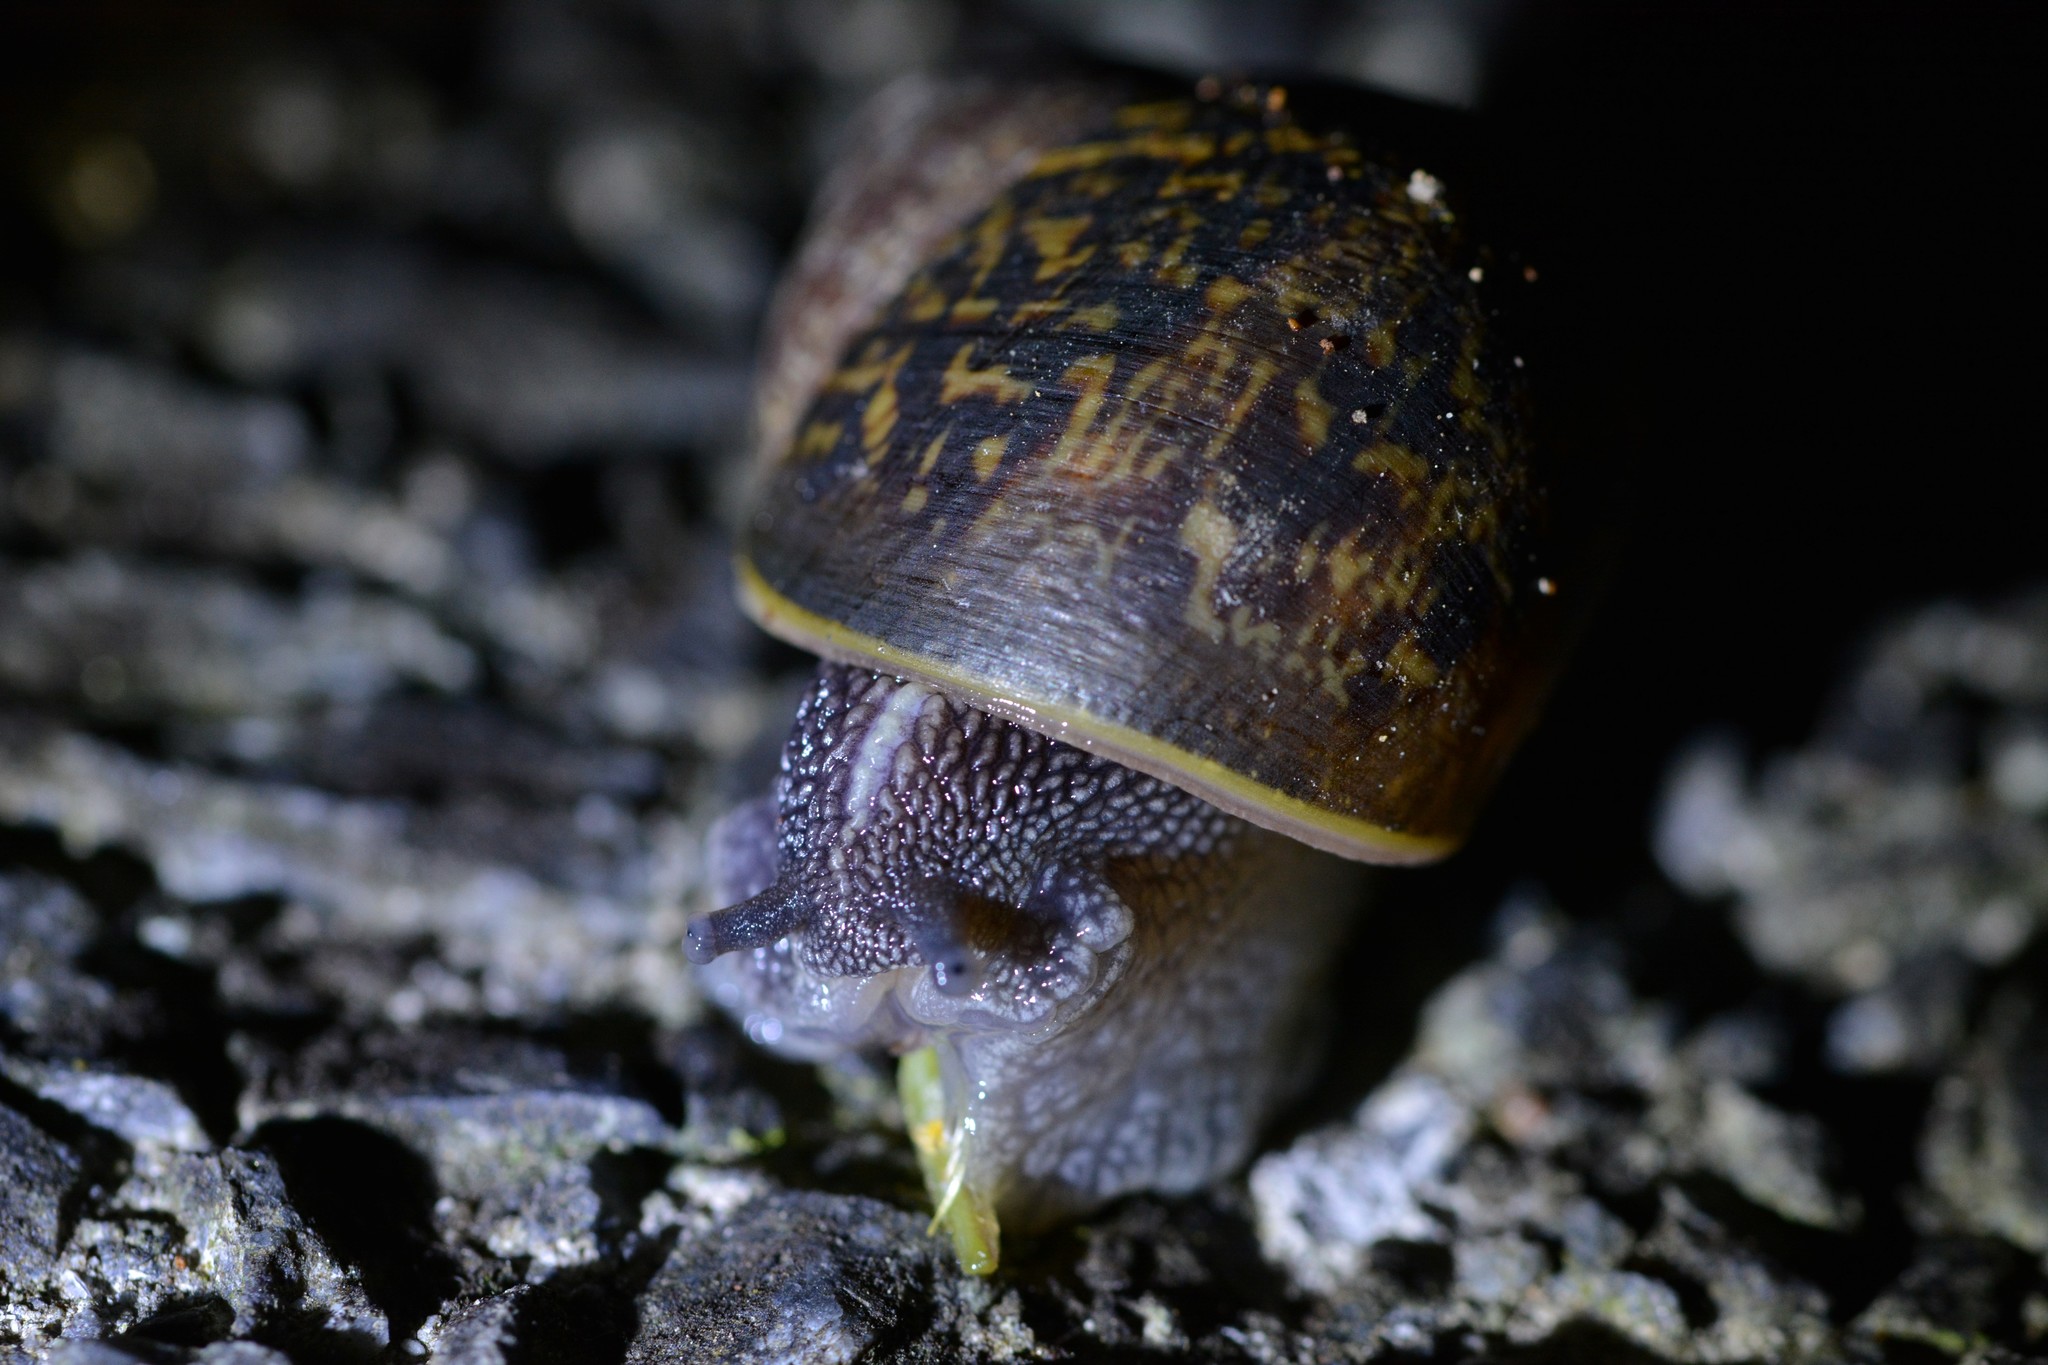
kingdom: Animalia
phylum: Mollusca
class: Gastropoda
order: Stylommatophora
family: Helicidae
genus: Cornu
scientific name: Cornu aspersum
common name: Brown garden snail
